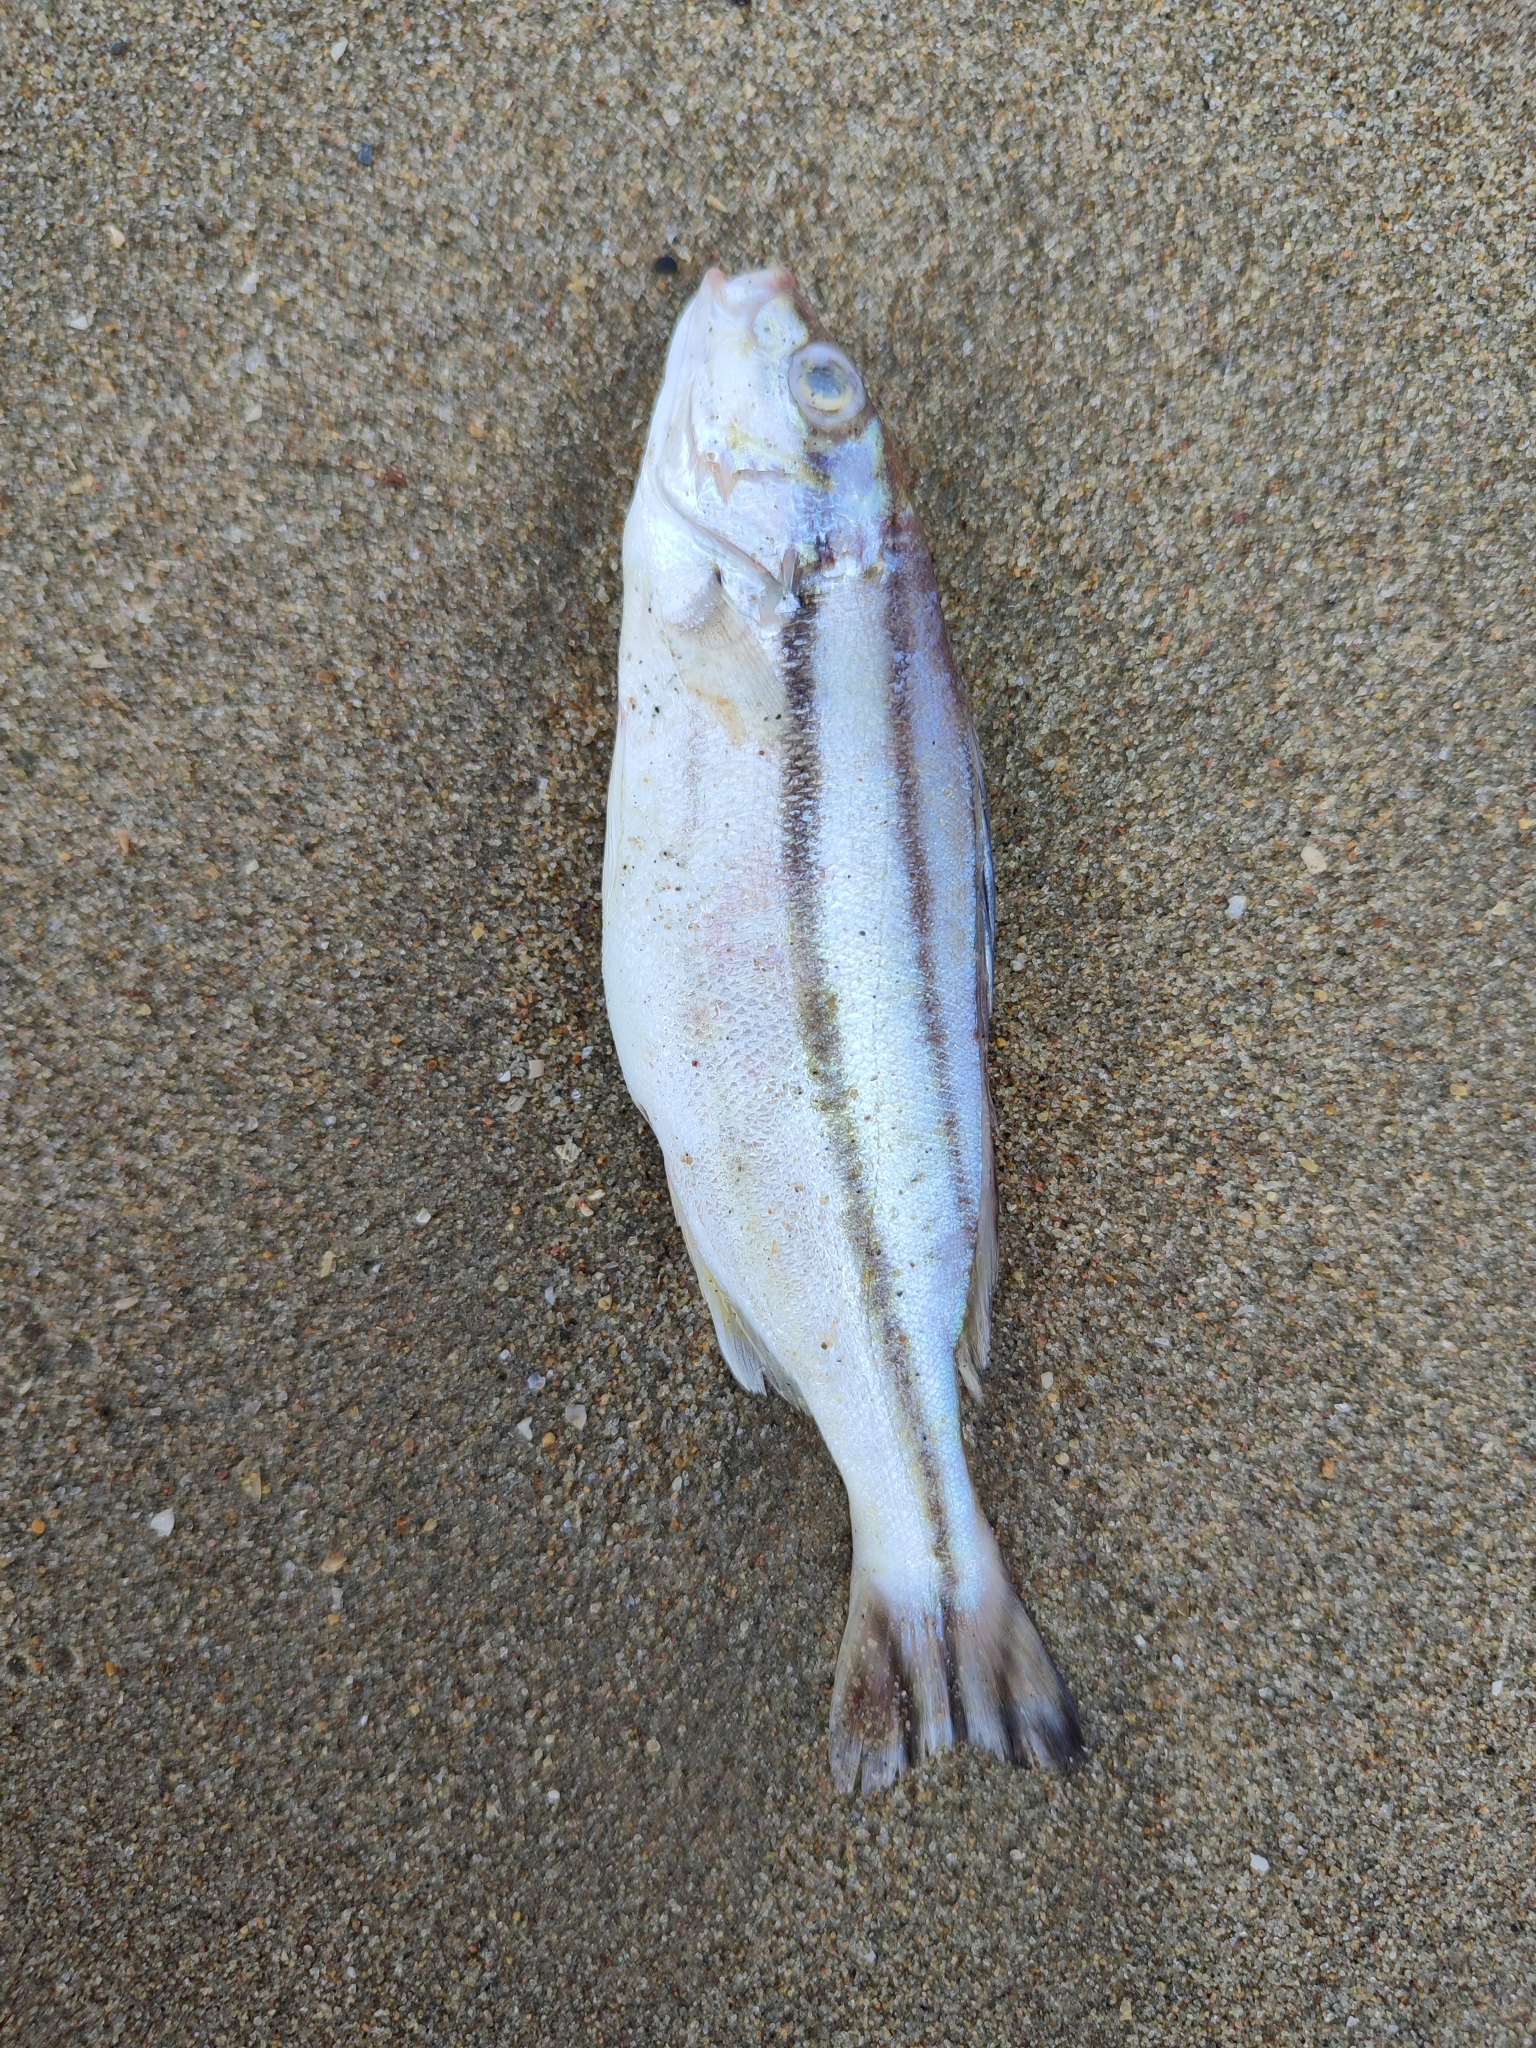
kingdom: Animalia
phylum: Chordata
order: Perciformes
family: Terapontidae
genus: Terapon
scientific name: Terapon puta
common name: Small-scaled terapon
